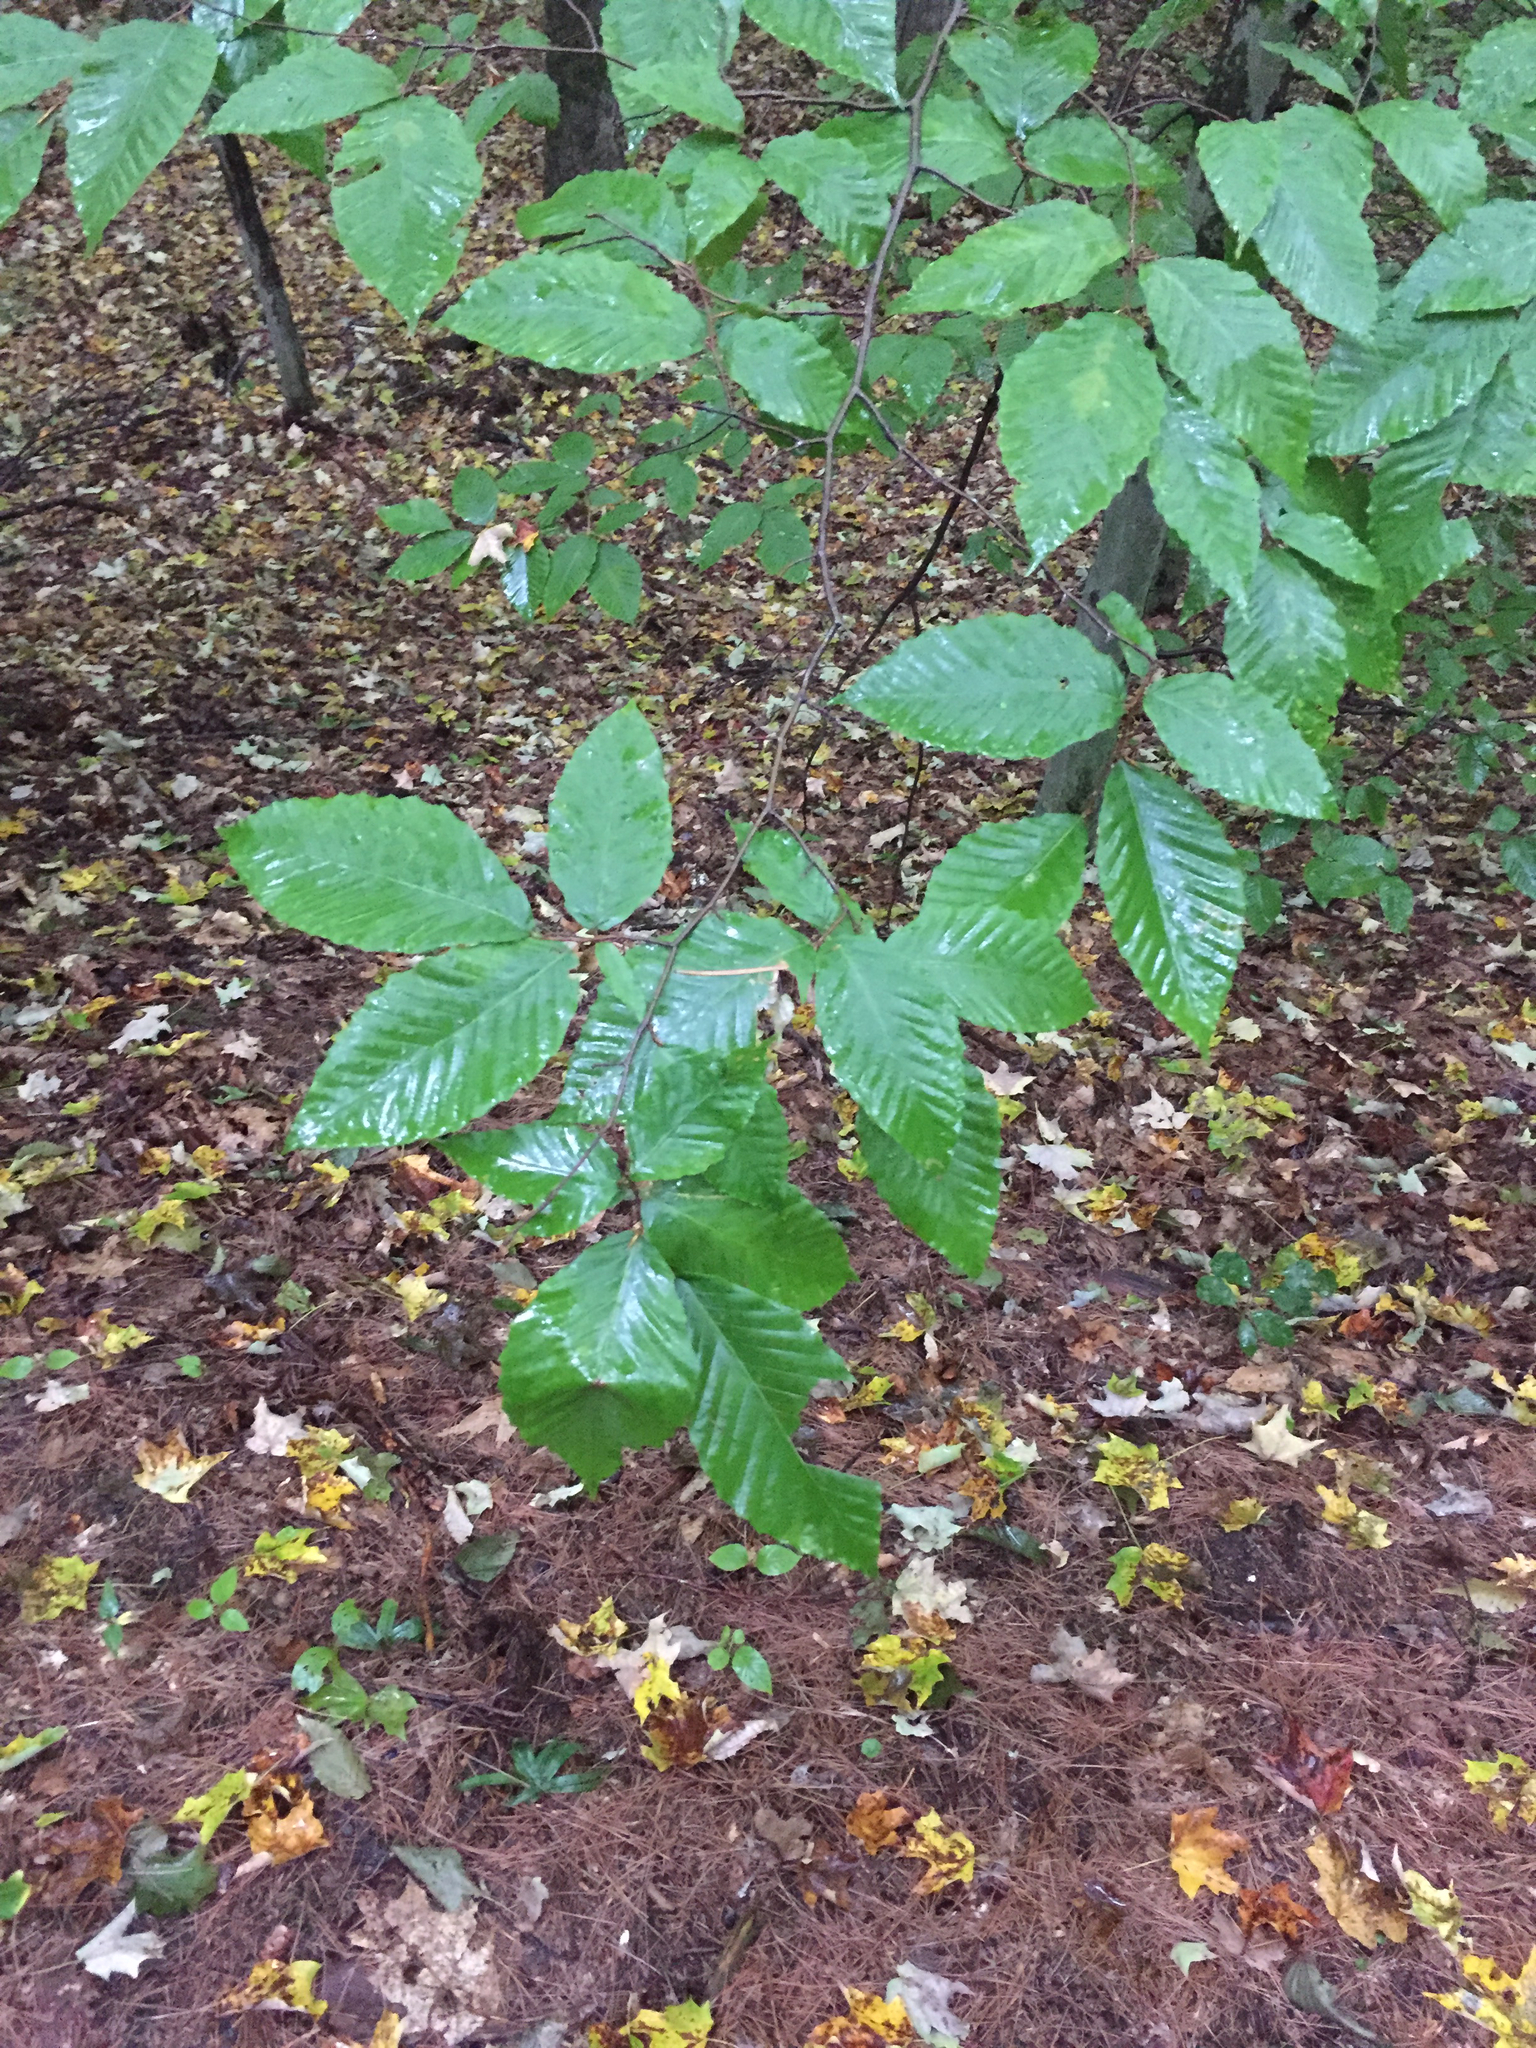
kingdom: Plantae
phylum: Tracheophyta
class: Magnoliopsida
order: Fagales
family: Fagaceae
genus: Fagus
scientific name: Fagus grandifolia
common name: American beech
